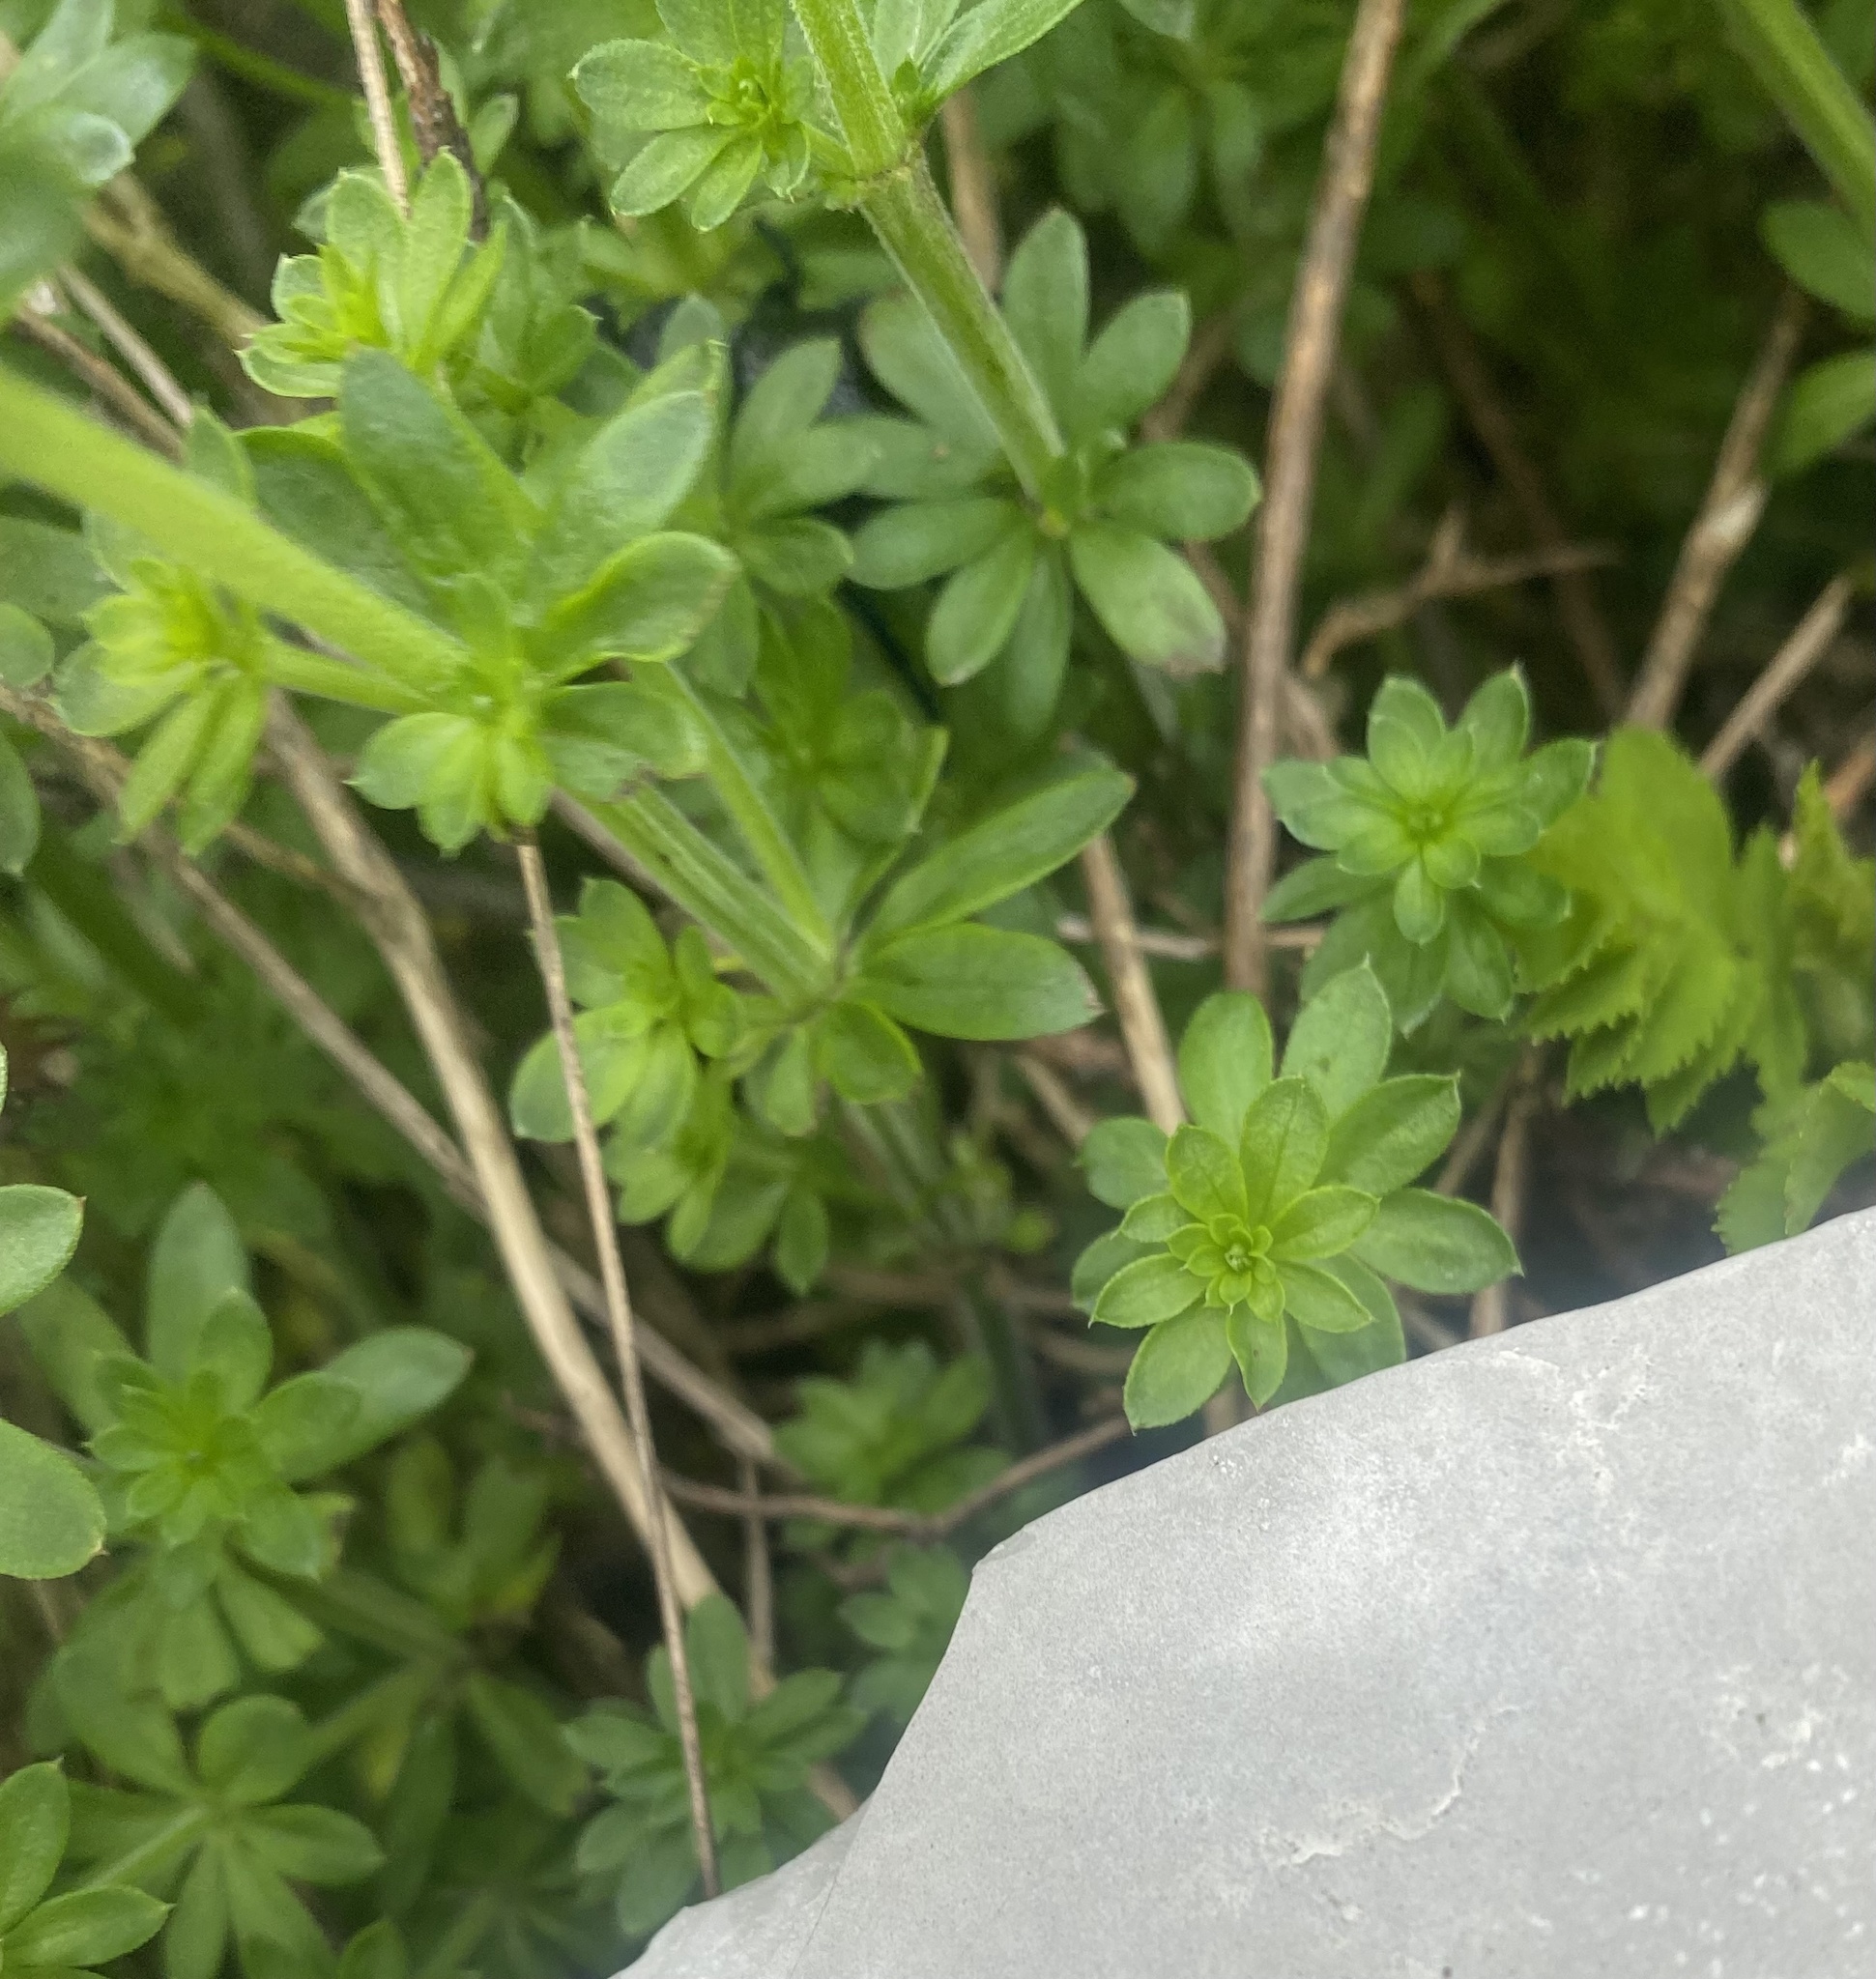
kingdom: Plantae
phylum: Tracheophyta
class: Magnoliopsida
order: Gentianales
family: Rubiaceae
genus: Galium
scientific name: Galium mollugo
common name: Hedge bedstraw
